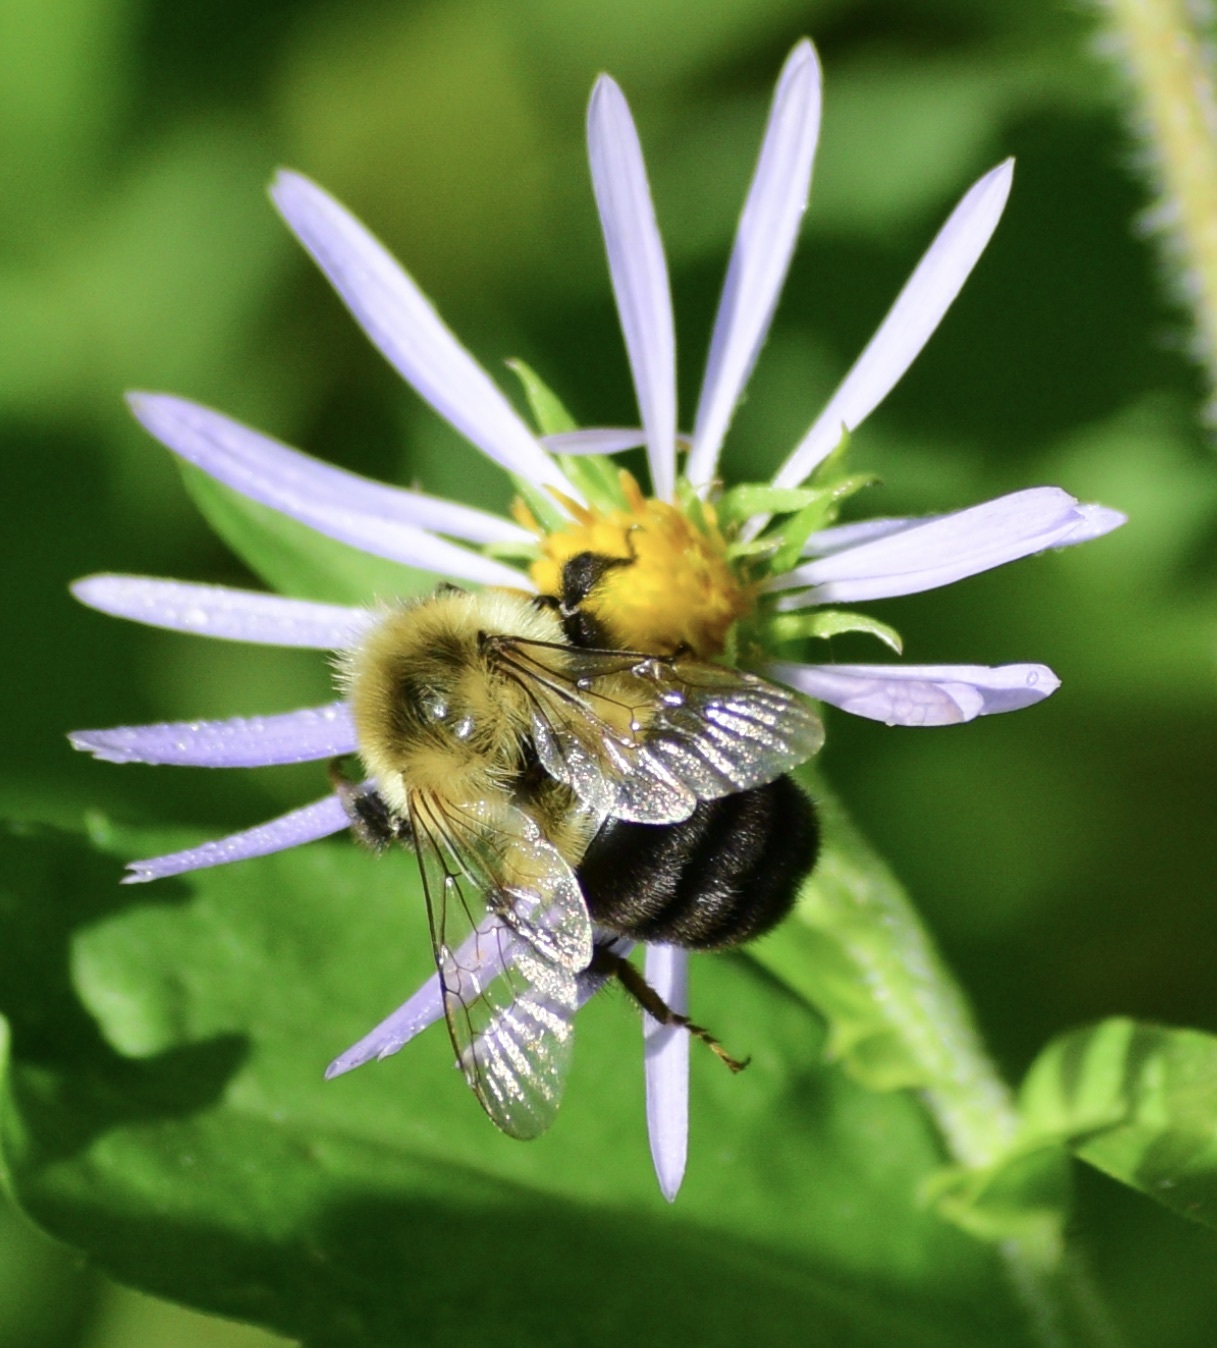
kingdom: Animalia
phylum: Arthropoda
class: Insecta
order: Hymenoptera
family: Apidae
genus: Bombus
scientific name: Bombus impatiens
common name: Common eastern bumble bee
